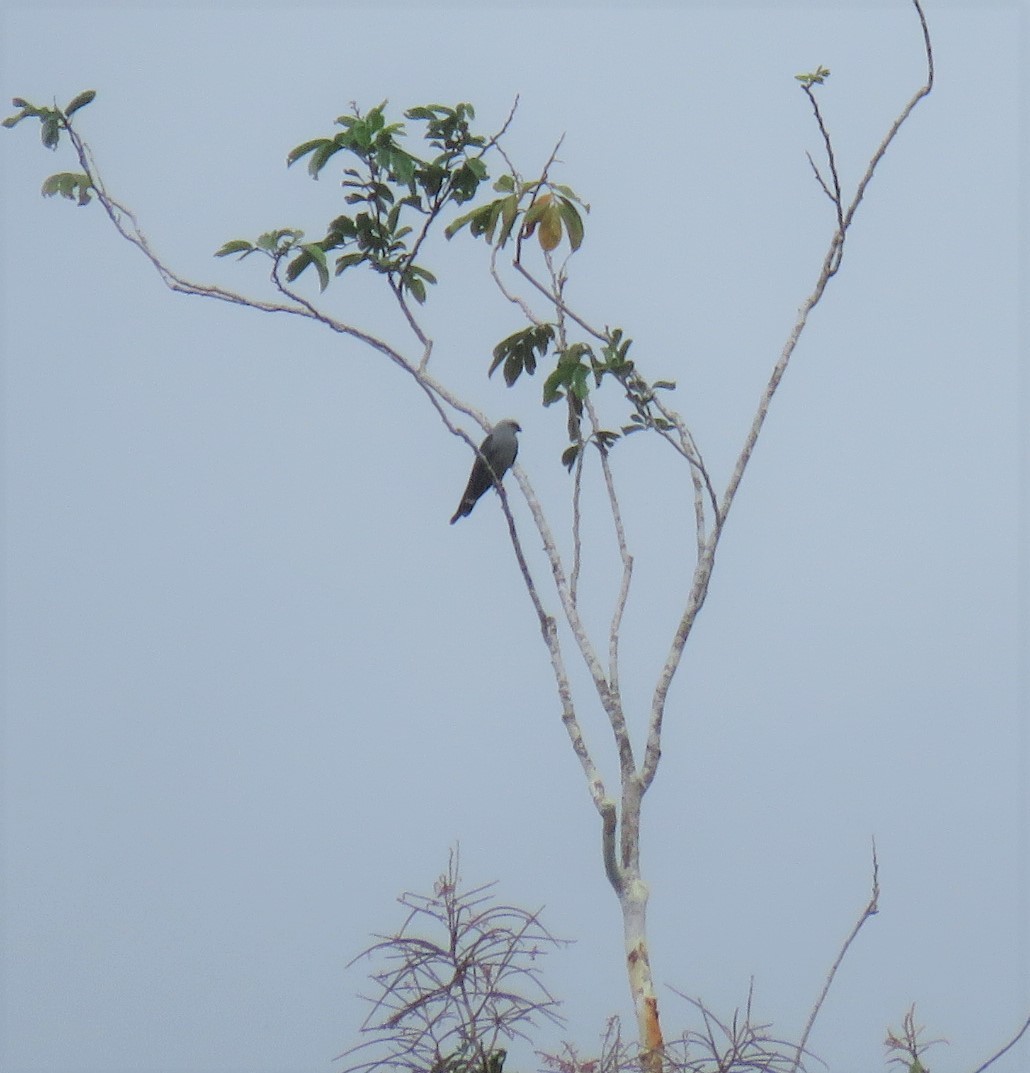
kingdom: Animalia
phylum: Chordata
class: Aves
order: Accipitriformes
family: Accipitridae
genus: Ictinia
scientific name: Ictinia plumbea
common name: Plumbeous kite
